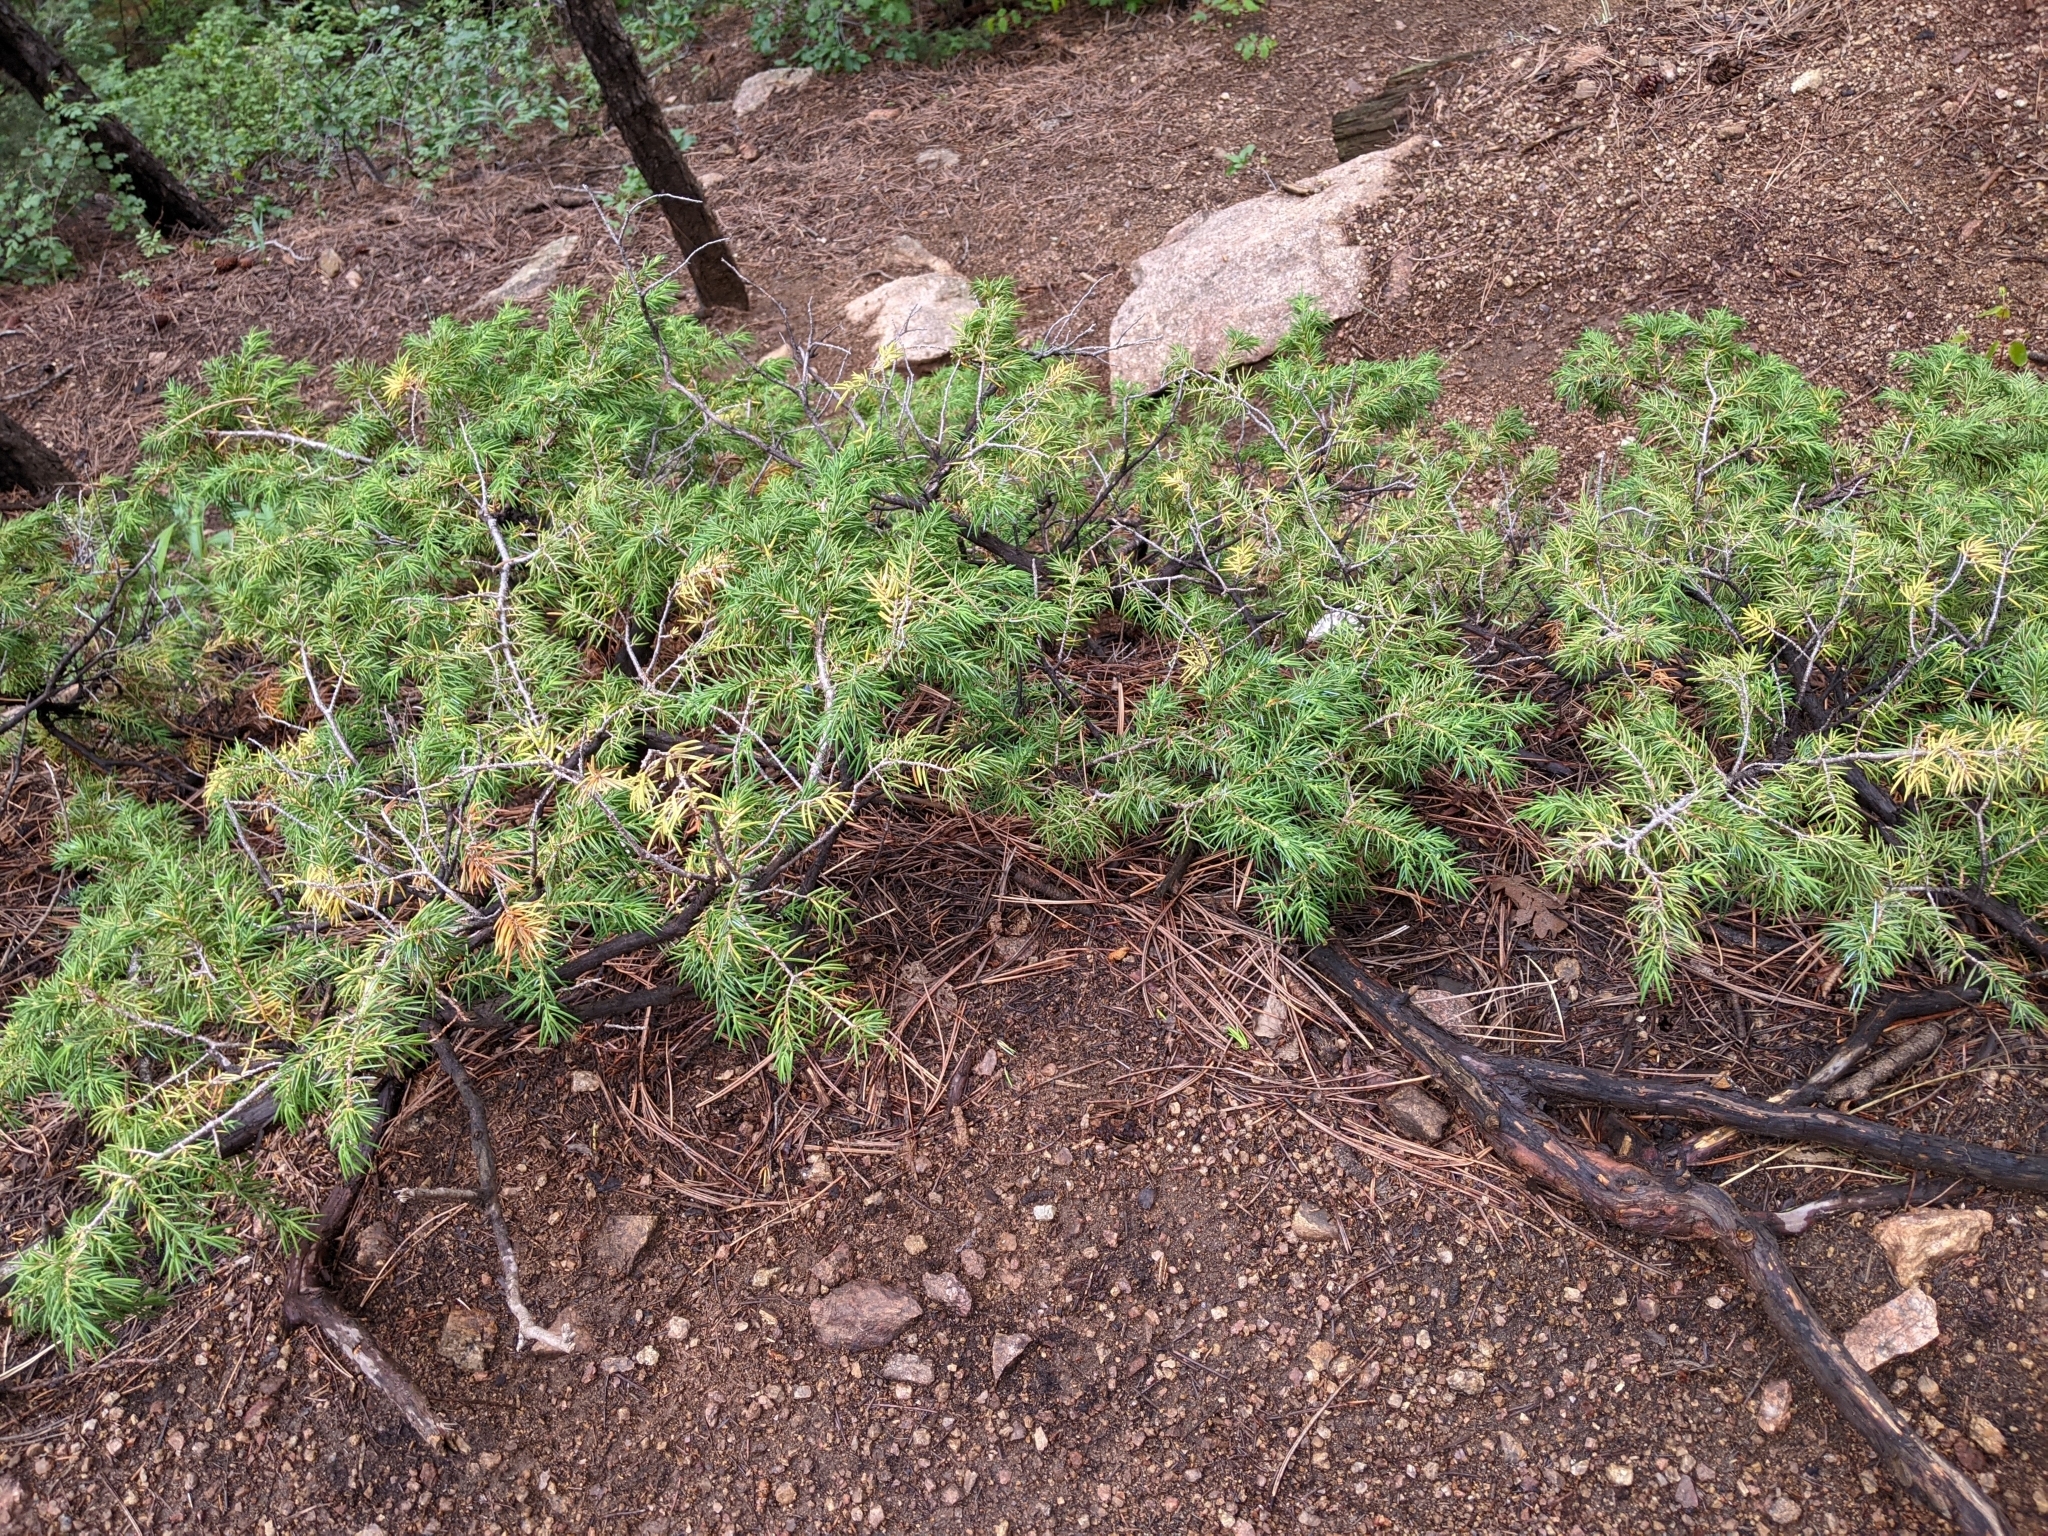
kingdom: Plantae
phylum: Tracheophyta
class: Pinopsida
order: Pinales
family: Cupressaceae
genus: Juniperus
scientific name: Juniperus communis
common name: Common juniper
